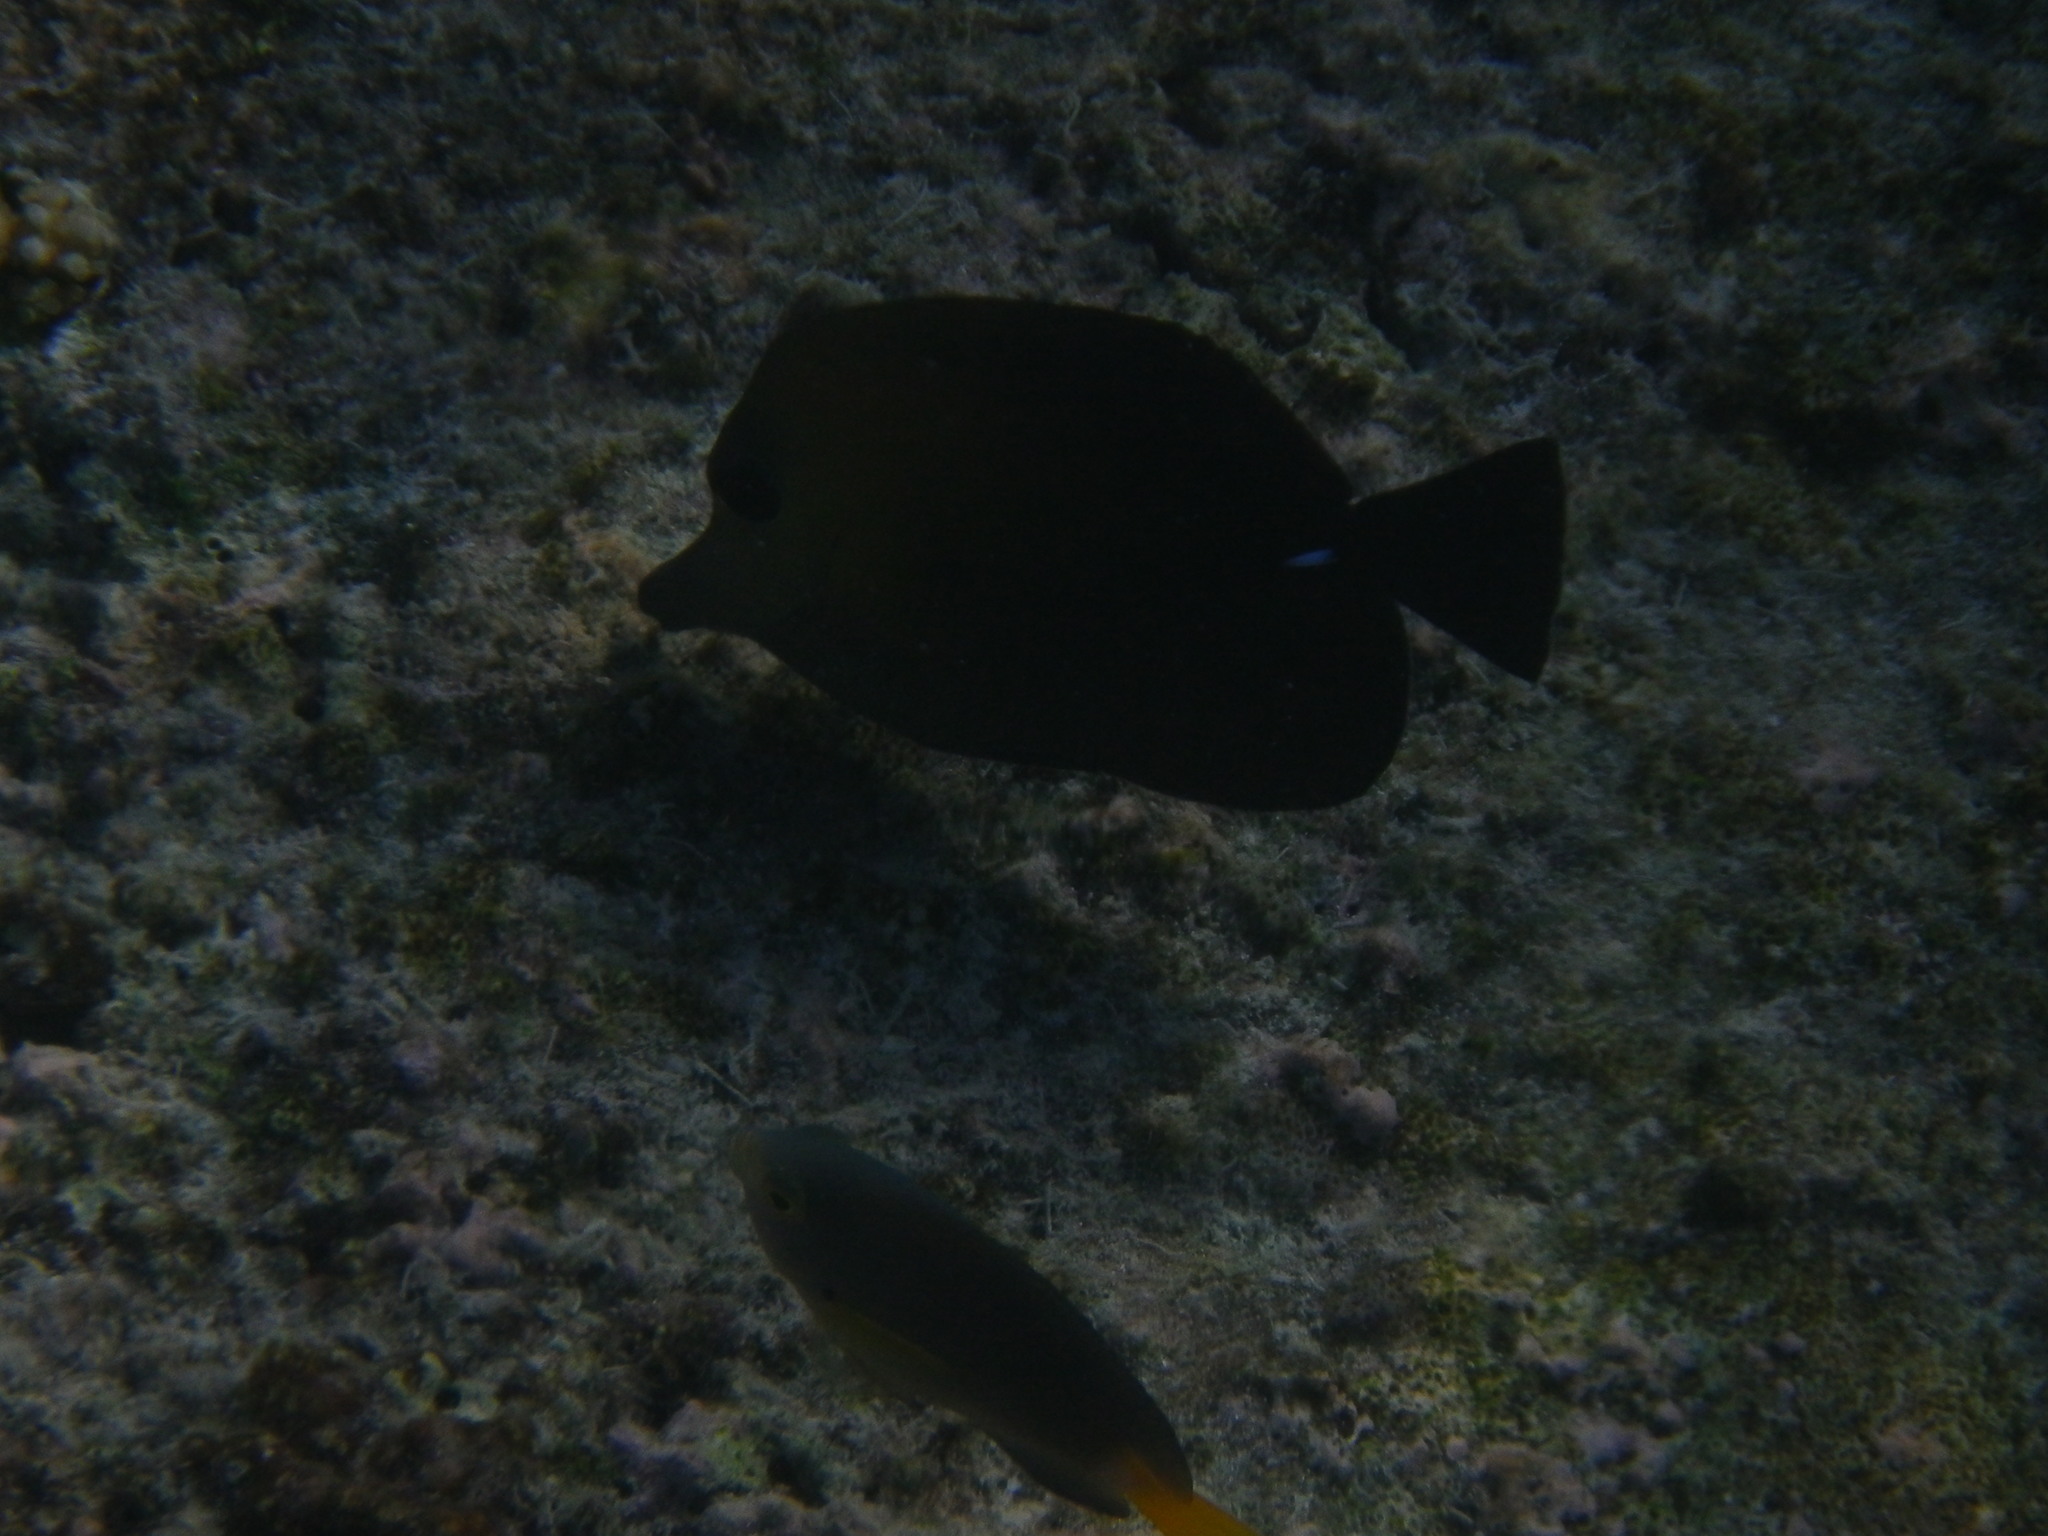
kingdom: Animalia
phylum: Chordata
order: Perciformes
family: Acanthuridae
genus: Zebrasoma
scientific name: Zebrasoma scopas
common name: Twotone tang
